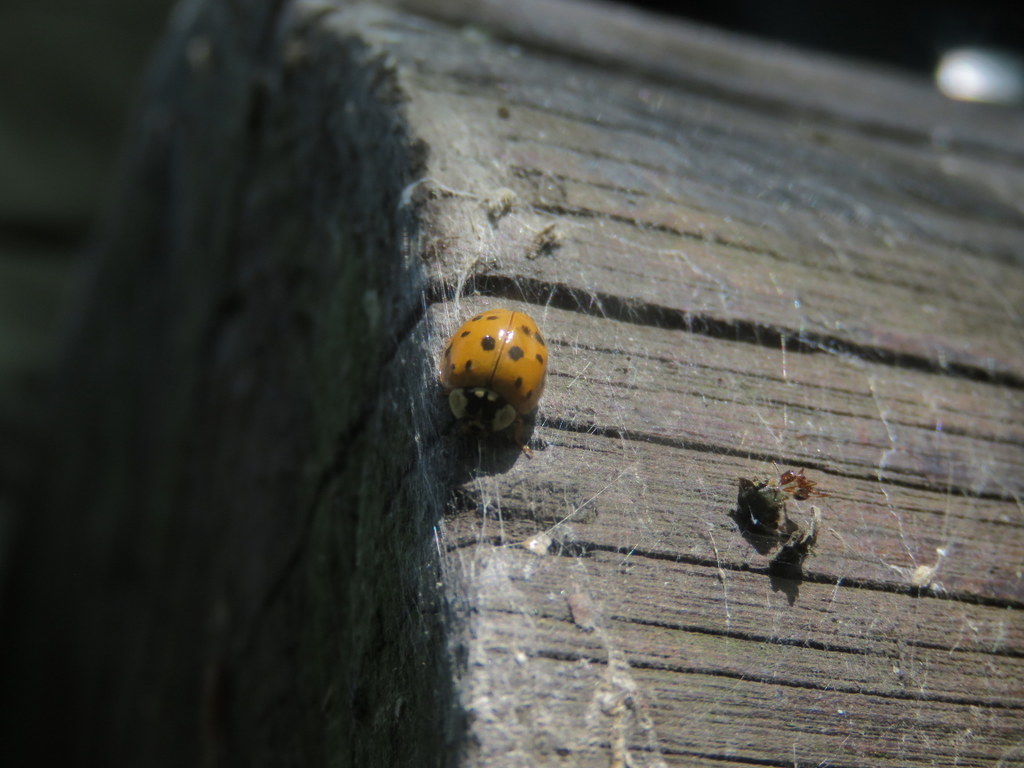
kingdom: Animalia
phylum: Arthropoda
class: Insecta
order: Coleoptera
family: Coccinellidae
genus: Harmonia
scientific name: Harmonia axyridis
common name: Harlequin ladybird
